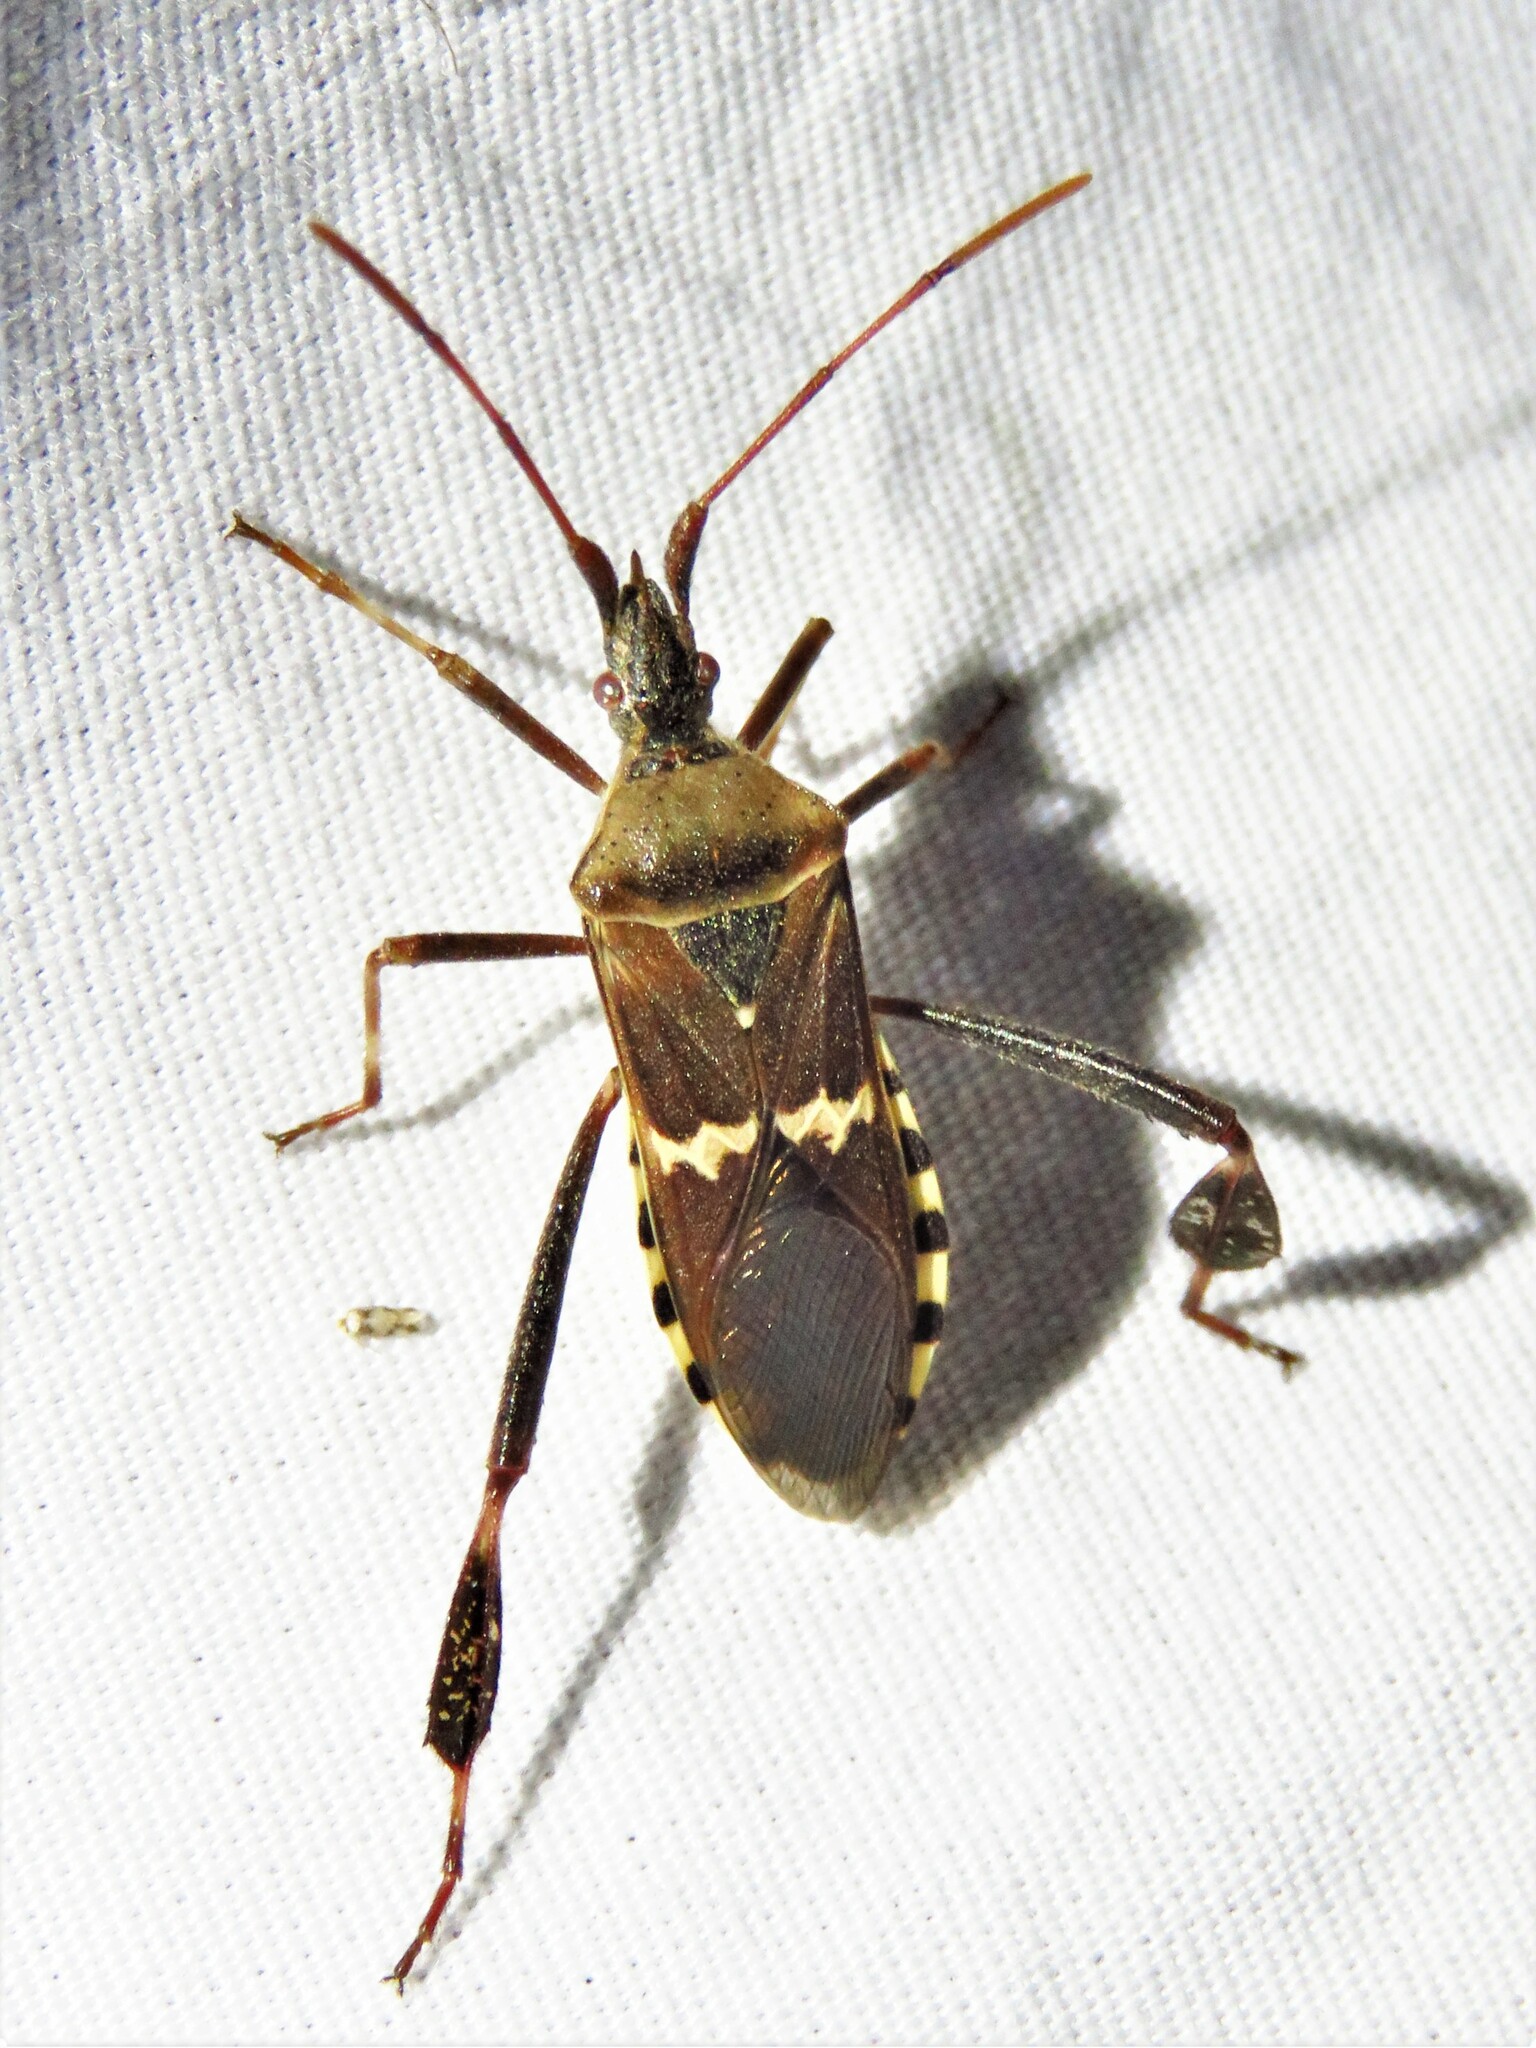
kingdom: Animalia
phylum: Arthropoda
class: Insecta
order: Hemiptera
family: Coreidae
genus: Leptoglossus
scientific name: Leptoglossus clypealis
